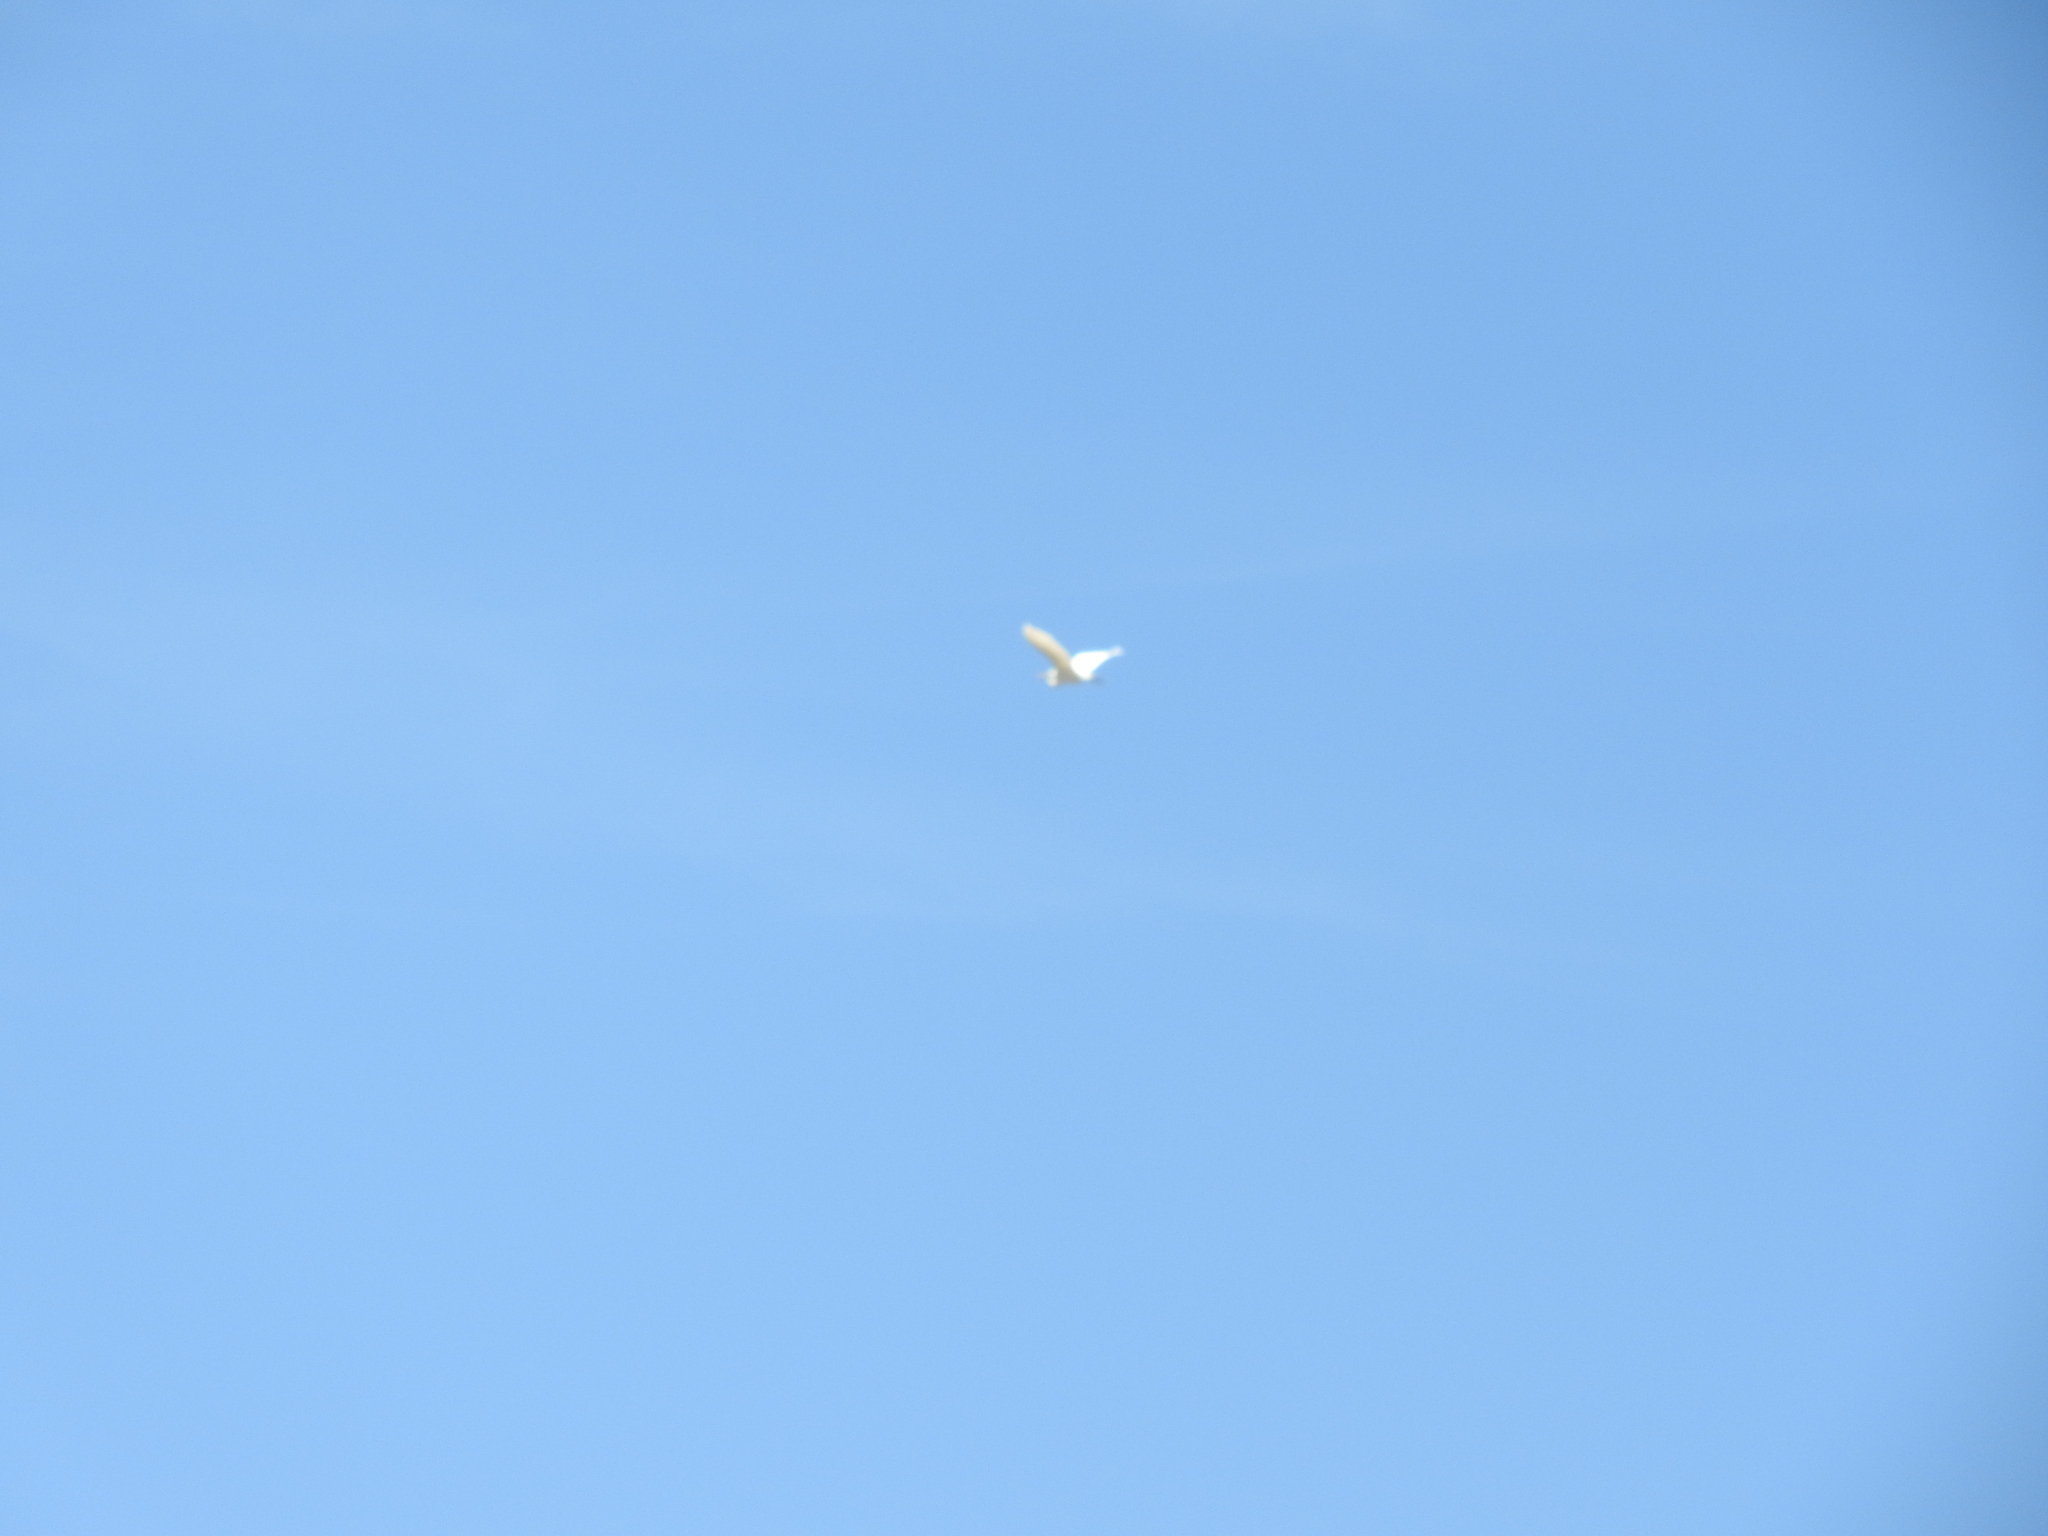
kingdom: Animalia
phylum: Chordata
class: Aves
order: Pelecaniformes
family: Ardeidae
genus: Ardea
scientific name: Ardea alba
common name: Great egret
